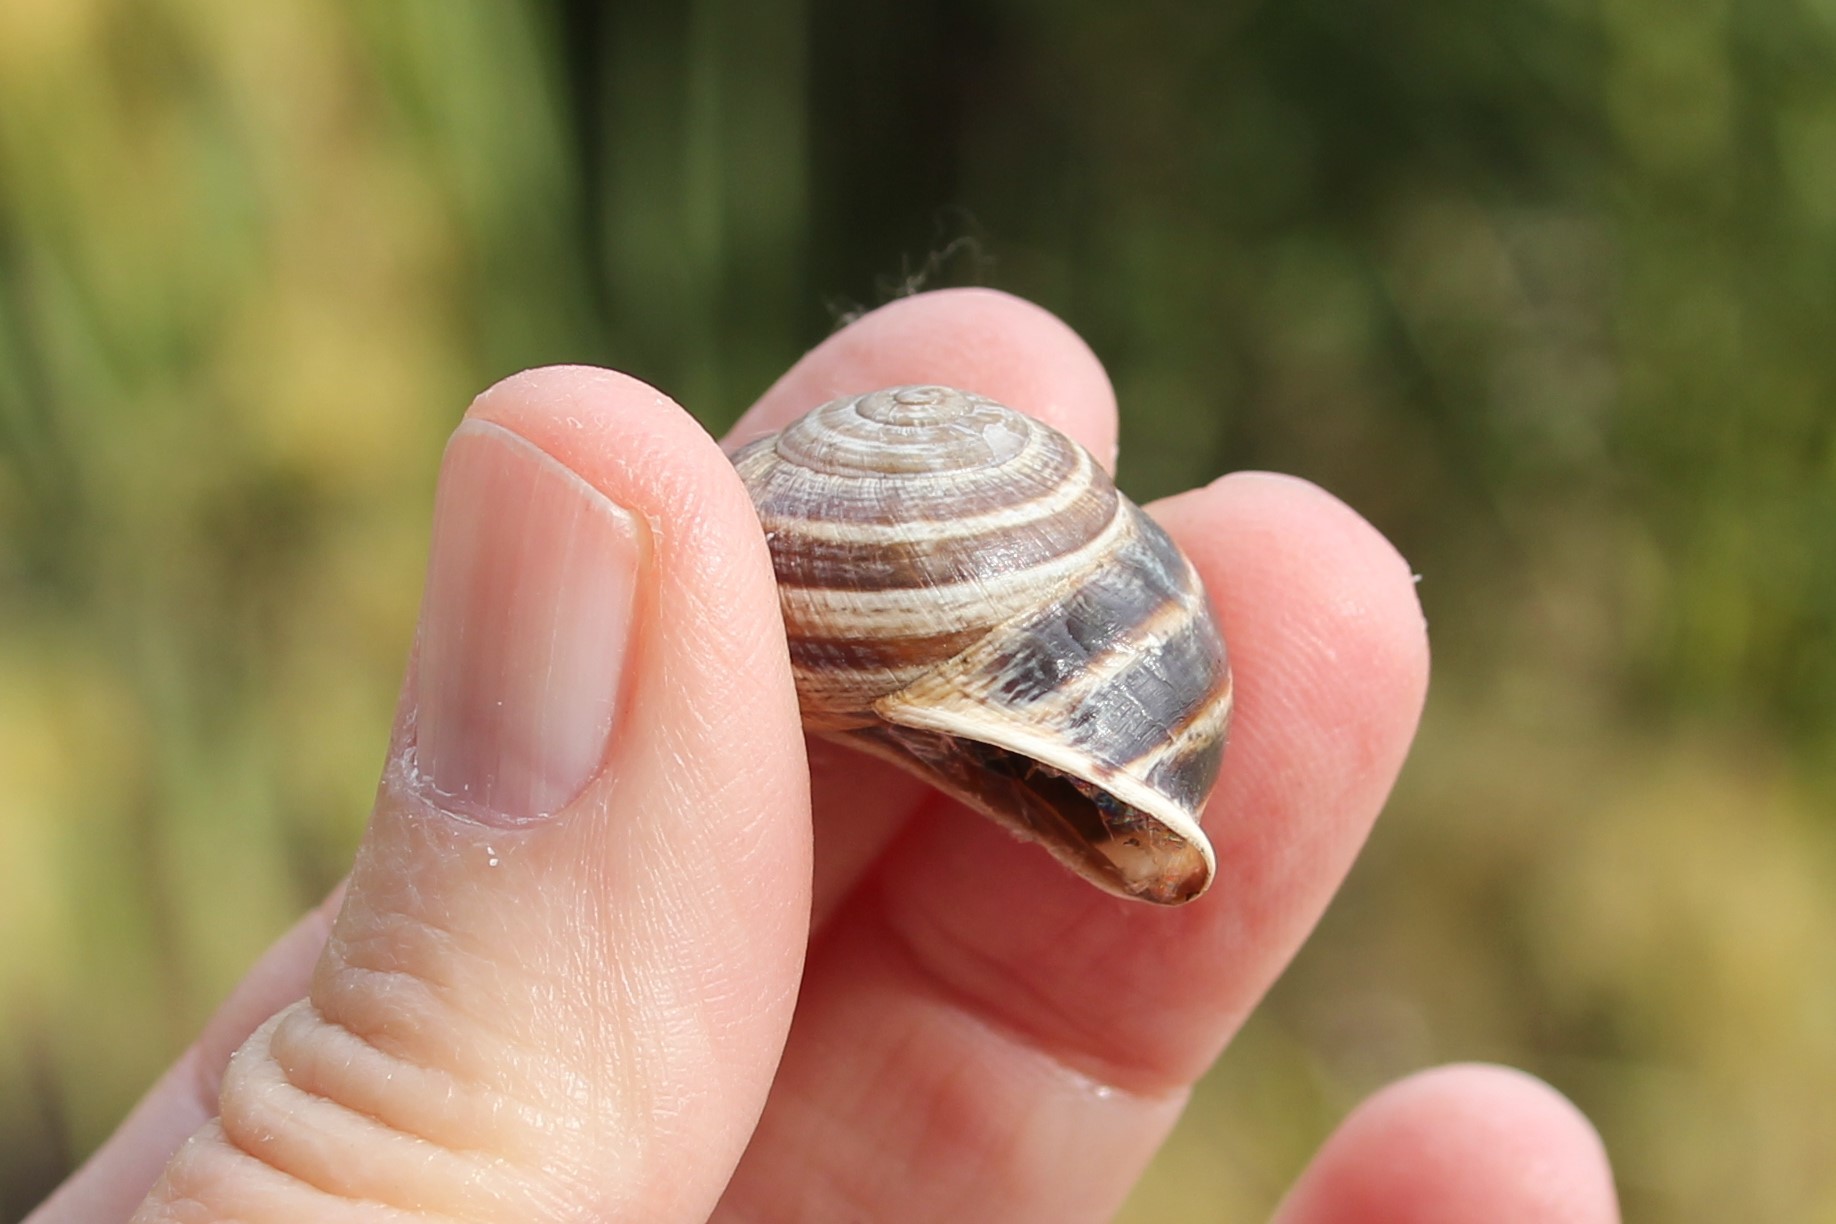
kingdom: Animalia
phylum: Mollusca
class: Gastropoda
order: Stylommatophora
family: Helicidae
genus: Otala
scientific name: Otala lactea
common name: Milk snail
